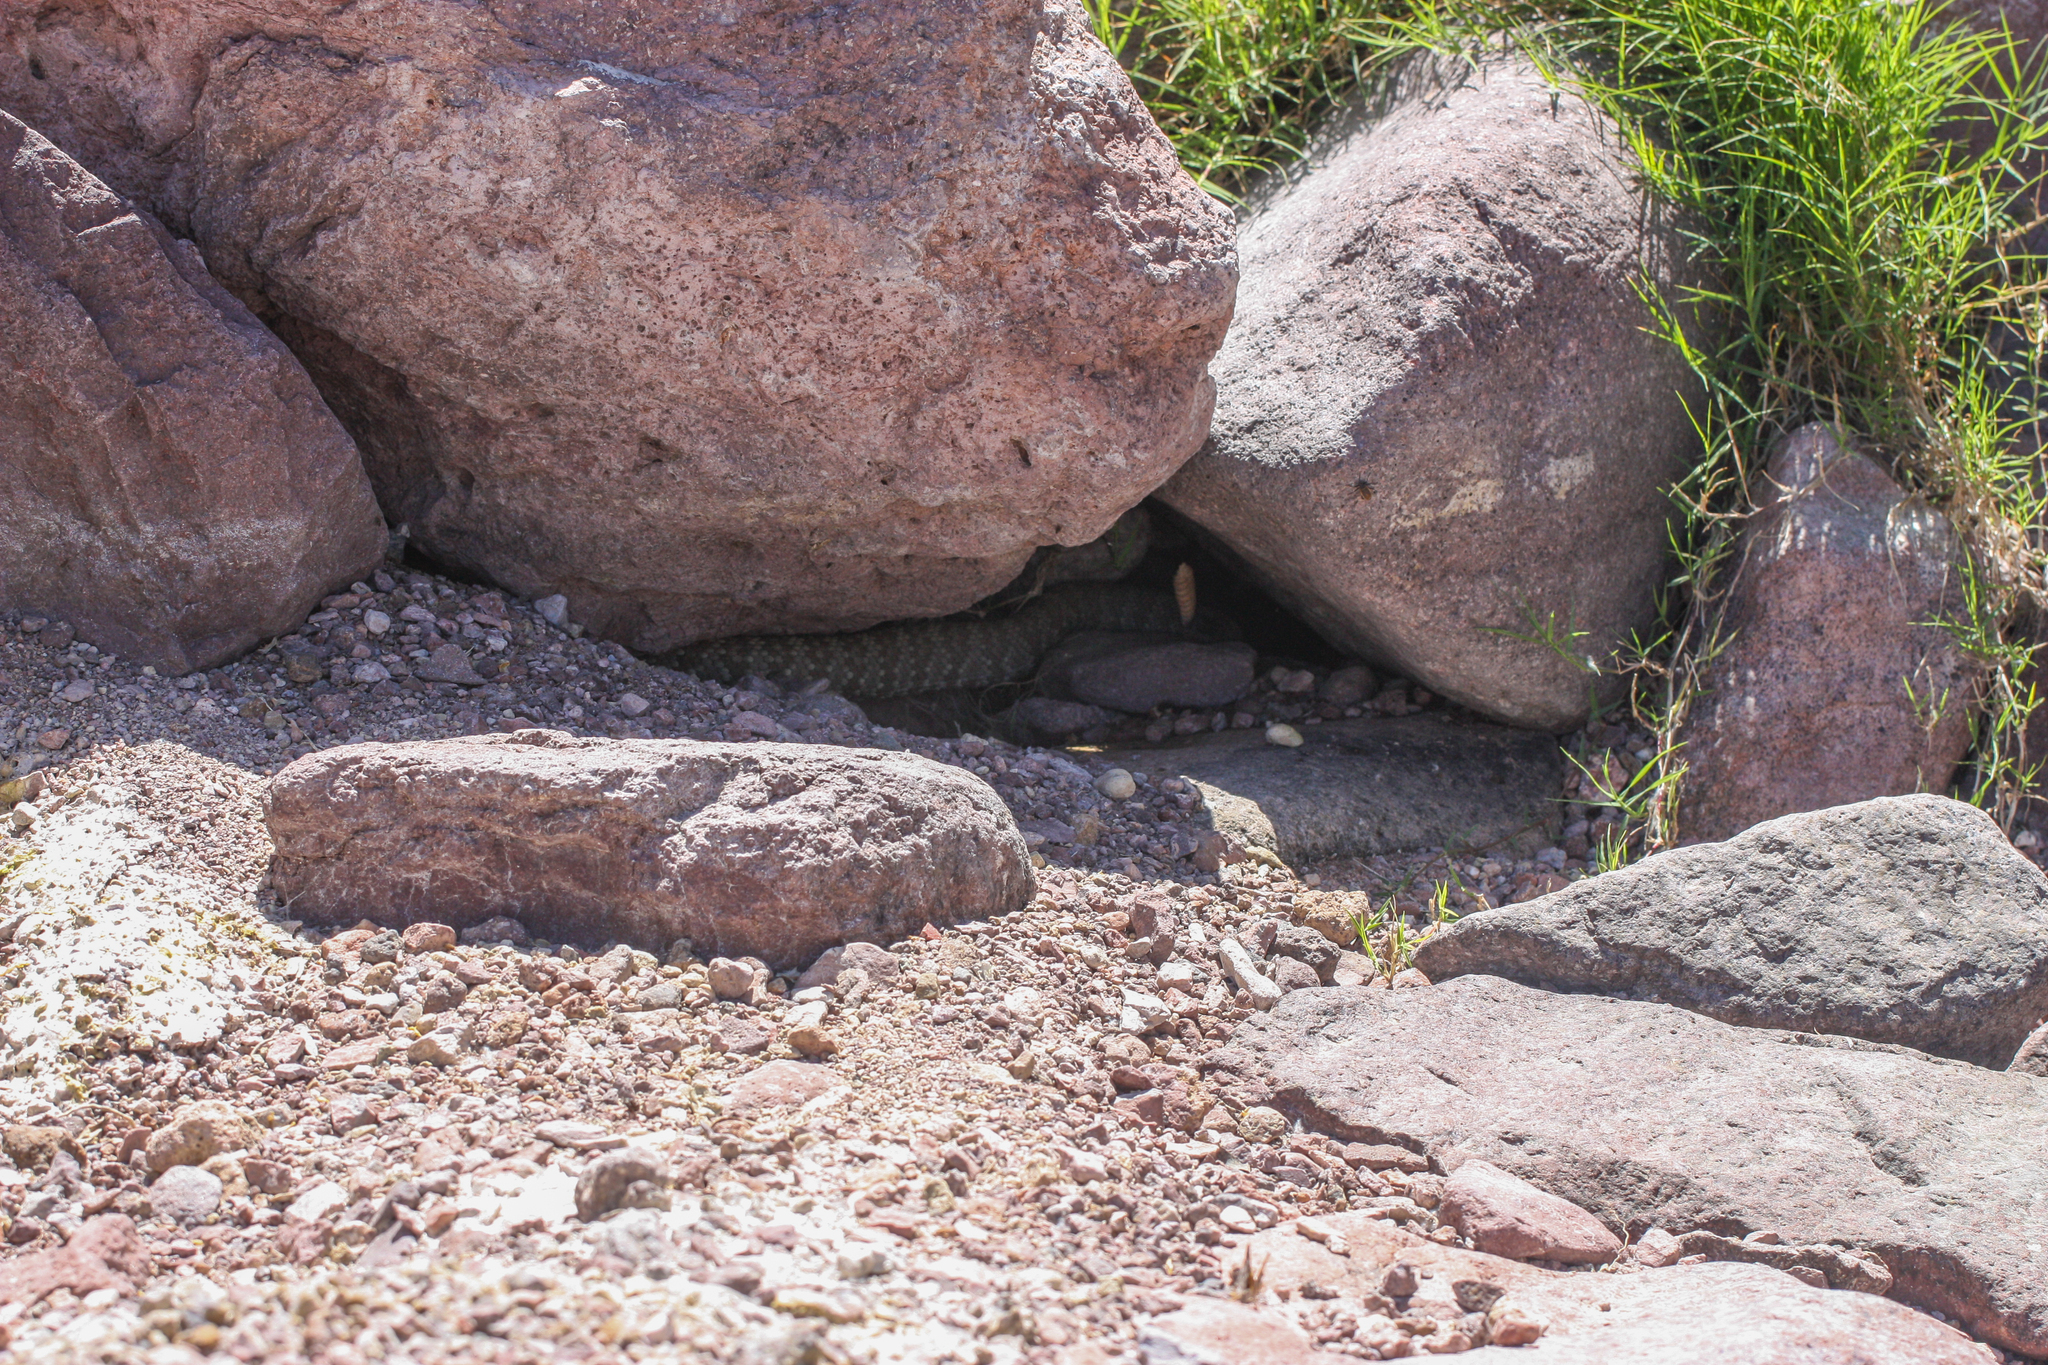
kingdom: Animalia
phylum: Chordata
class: Squamata
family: Viperidae
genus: Crotalus
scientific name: Crotalus molossus
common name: Black tailed rattlesnake
